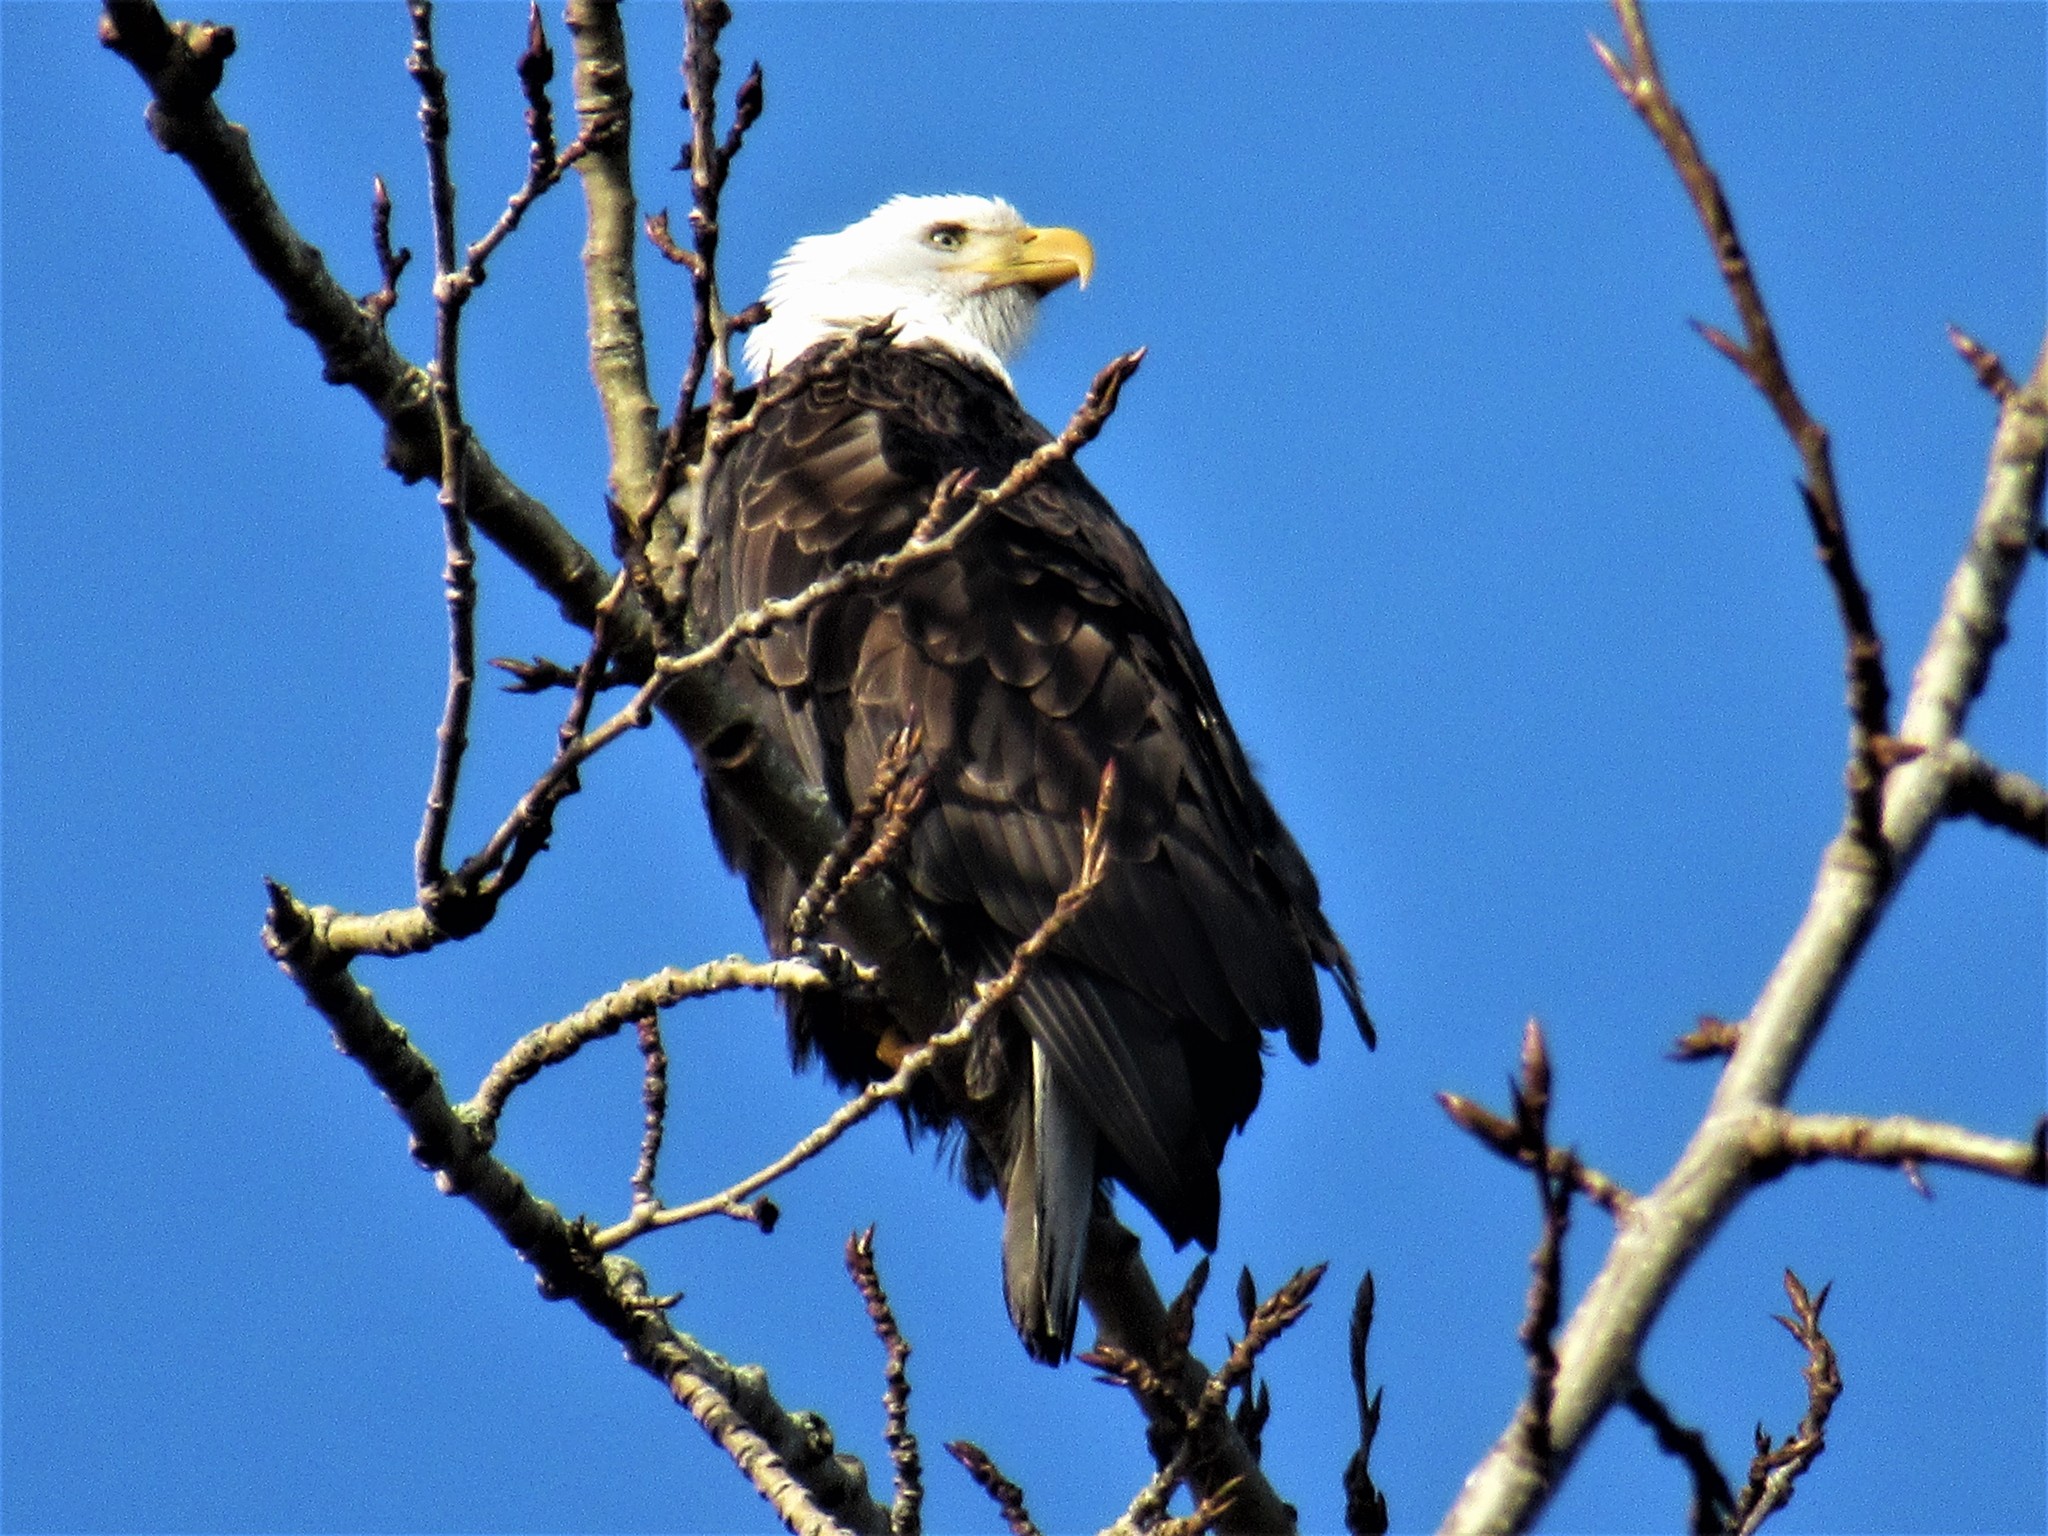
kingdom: Animalia
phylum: Chordata
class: Aves
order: Accipitriformes
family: Accipitridae
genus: Haliaeetus
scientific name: Haliaeetus leucocephalus
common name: Bald eagle
